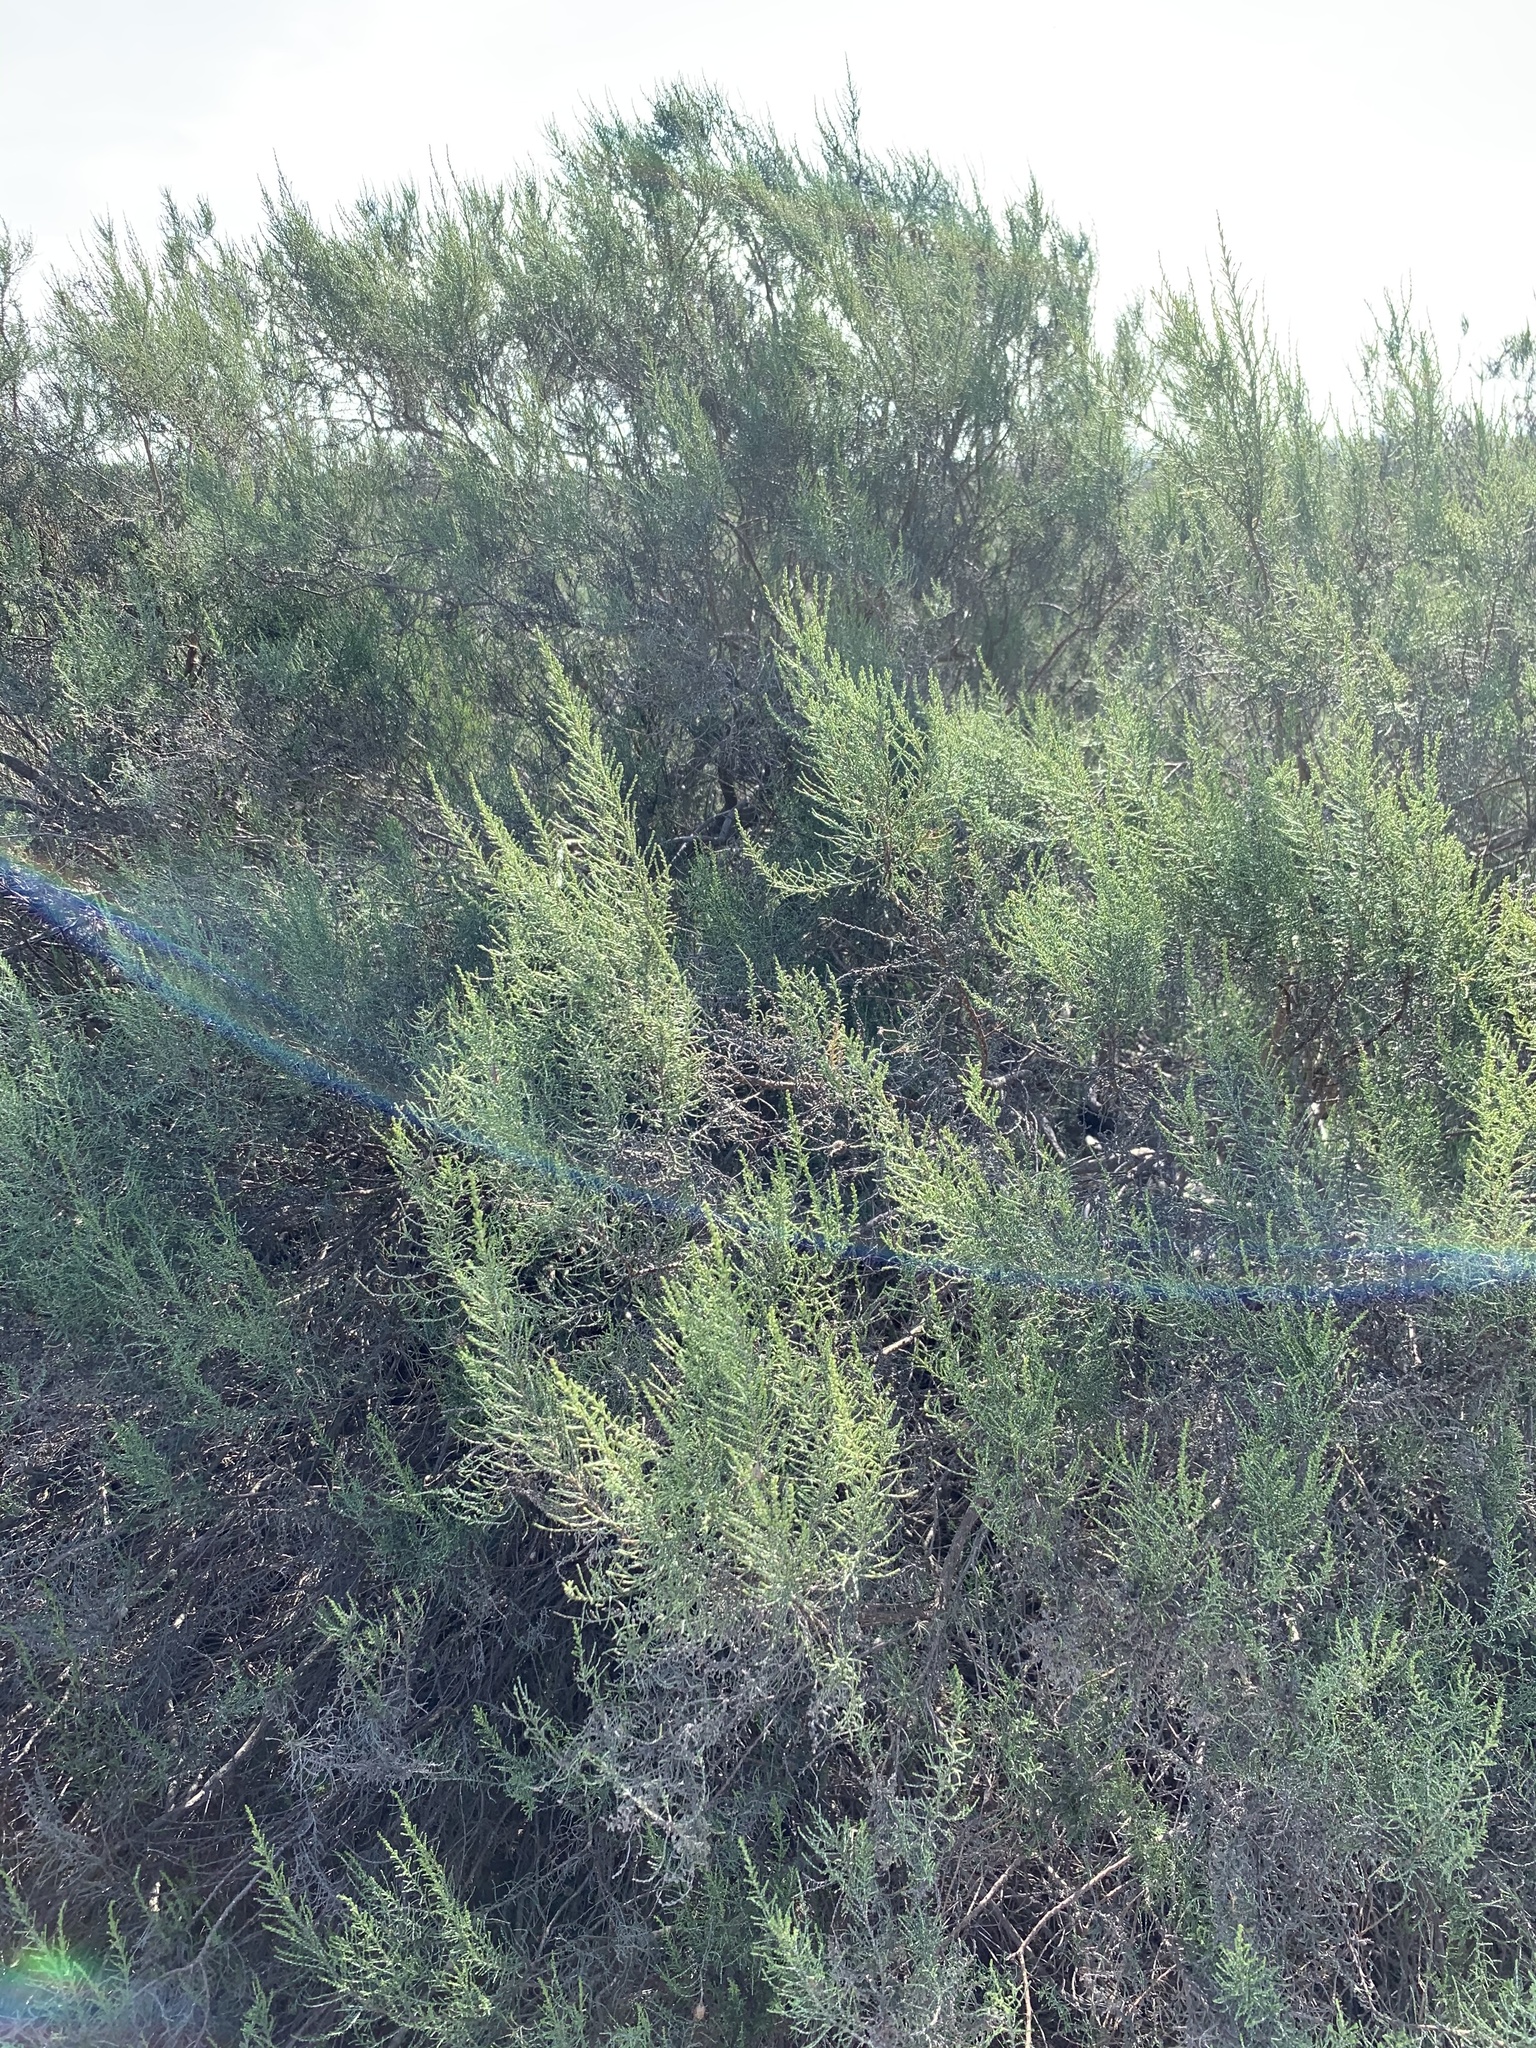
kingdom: Plantae
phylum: Tracheophyta
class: Magnoliopsida
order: Asterales
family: Asteraceae
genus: Dicerothamnus
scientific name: Dicerothamnus rhinocerotis
